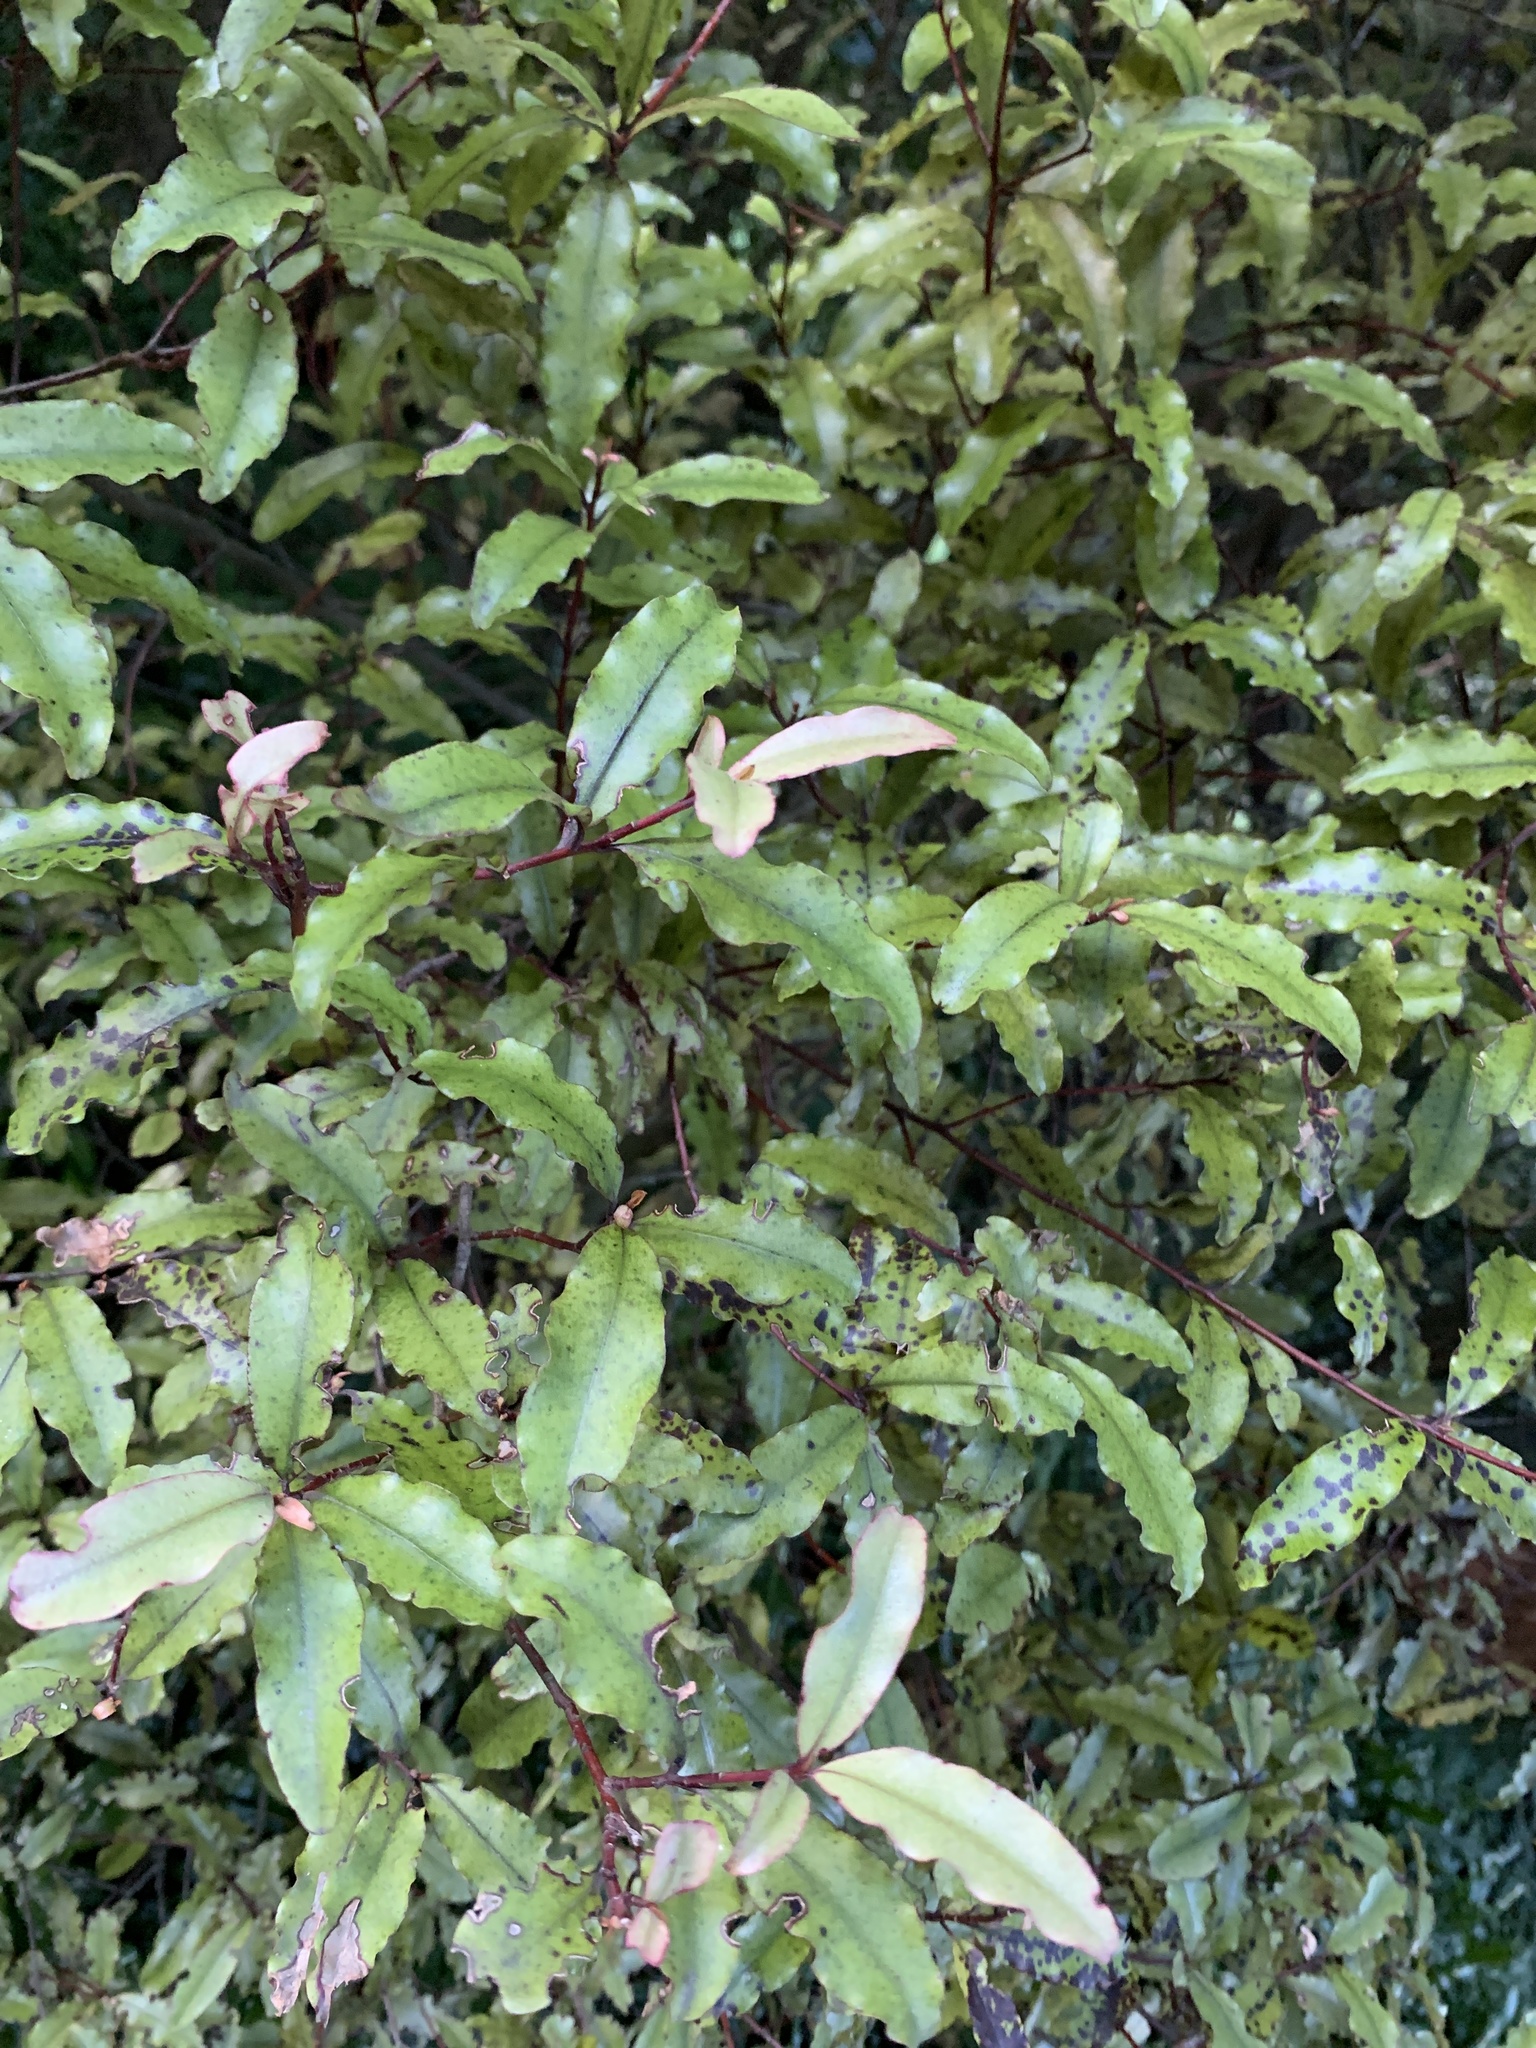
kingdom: Plantae
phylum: Tracheophyta
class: Magnoliopsida
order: Ericales
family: Primulaceae
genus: Myrsine
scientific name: Myrsine australis
